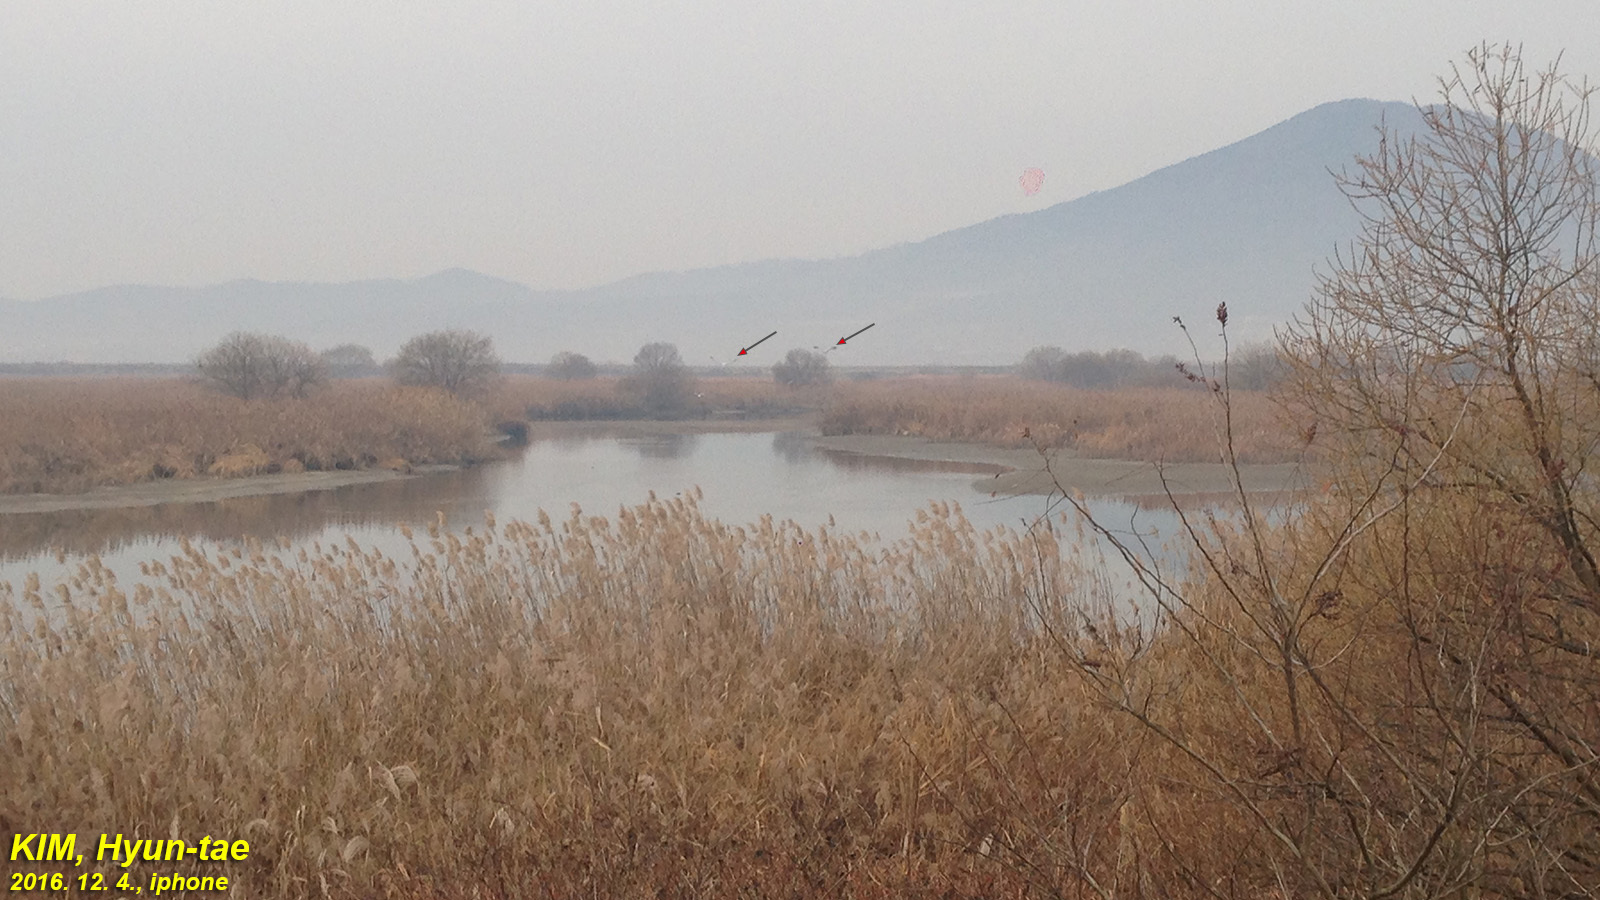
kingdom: Animalia
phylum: Chordata
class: Aves
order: Ciconiiformes
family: Ciconiidae
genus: Ciconia
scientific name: Ciconia boyciana
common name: Oriental stork
